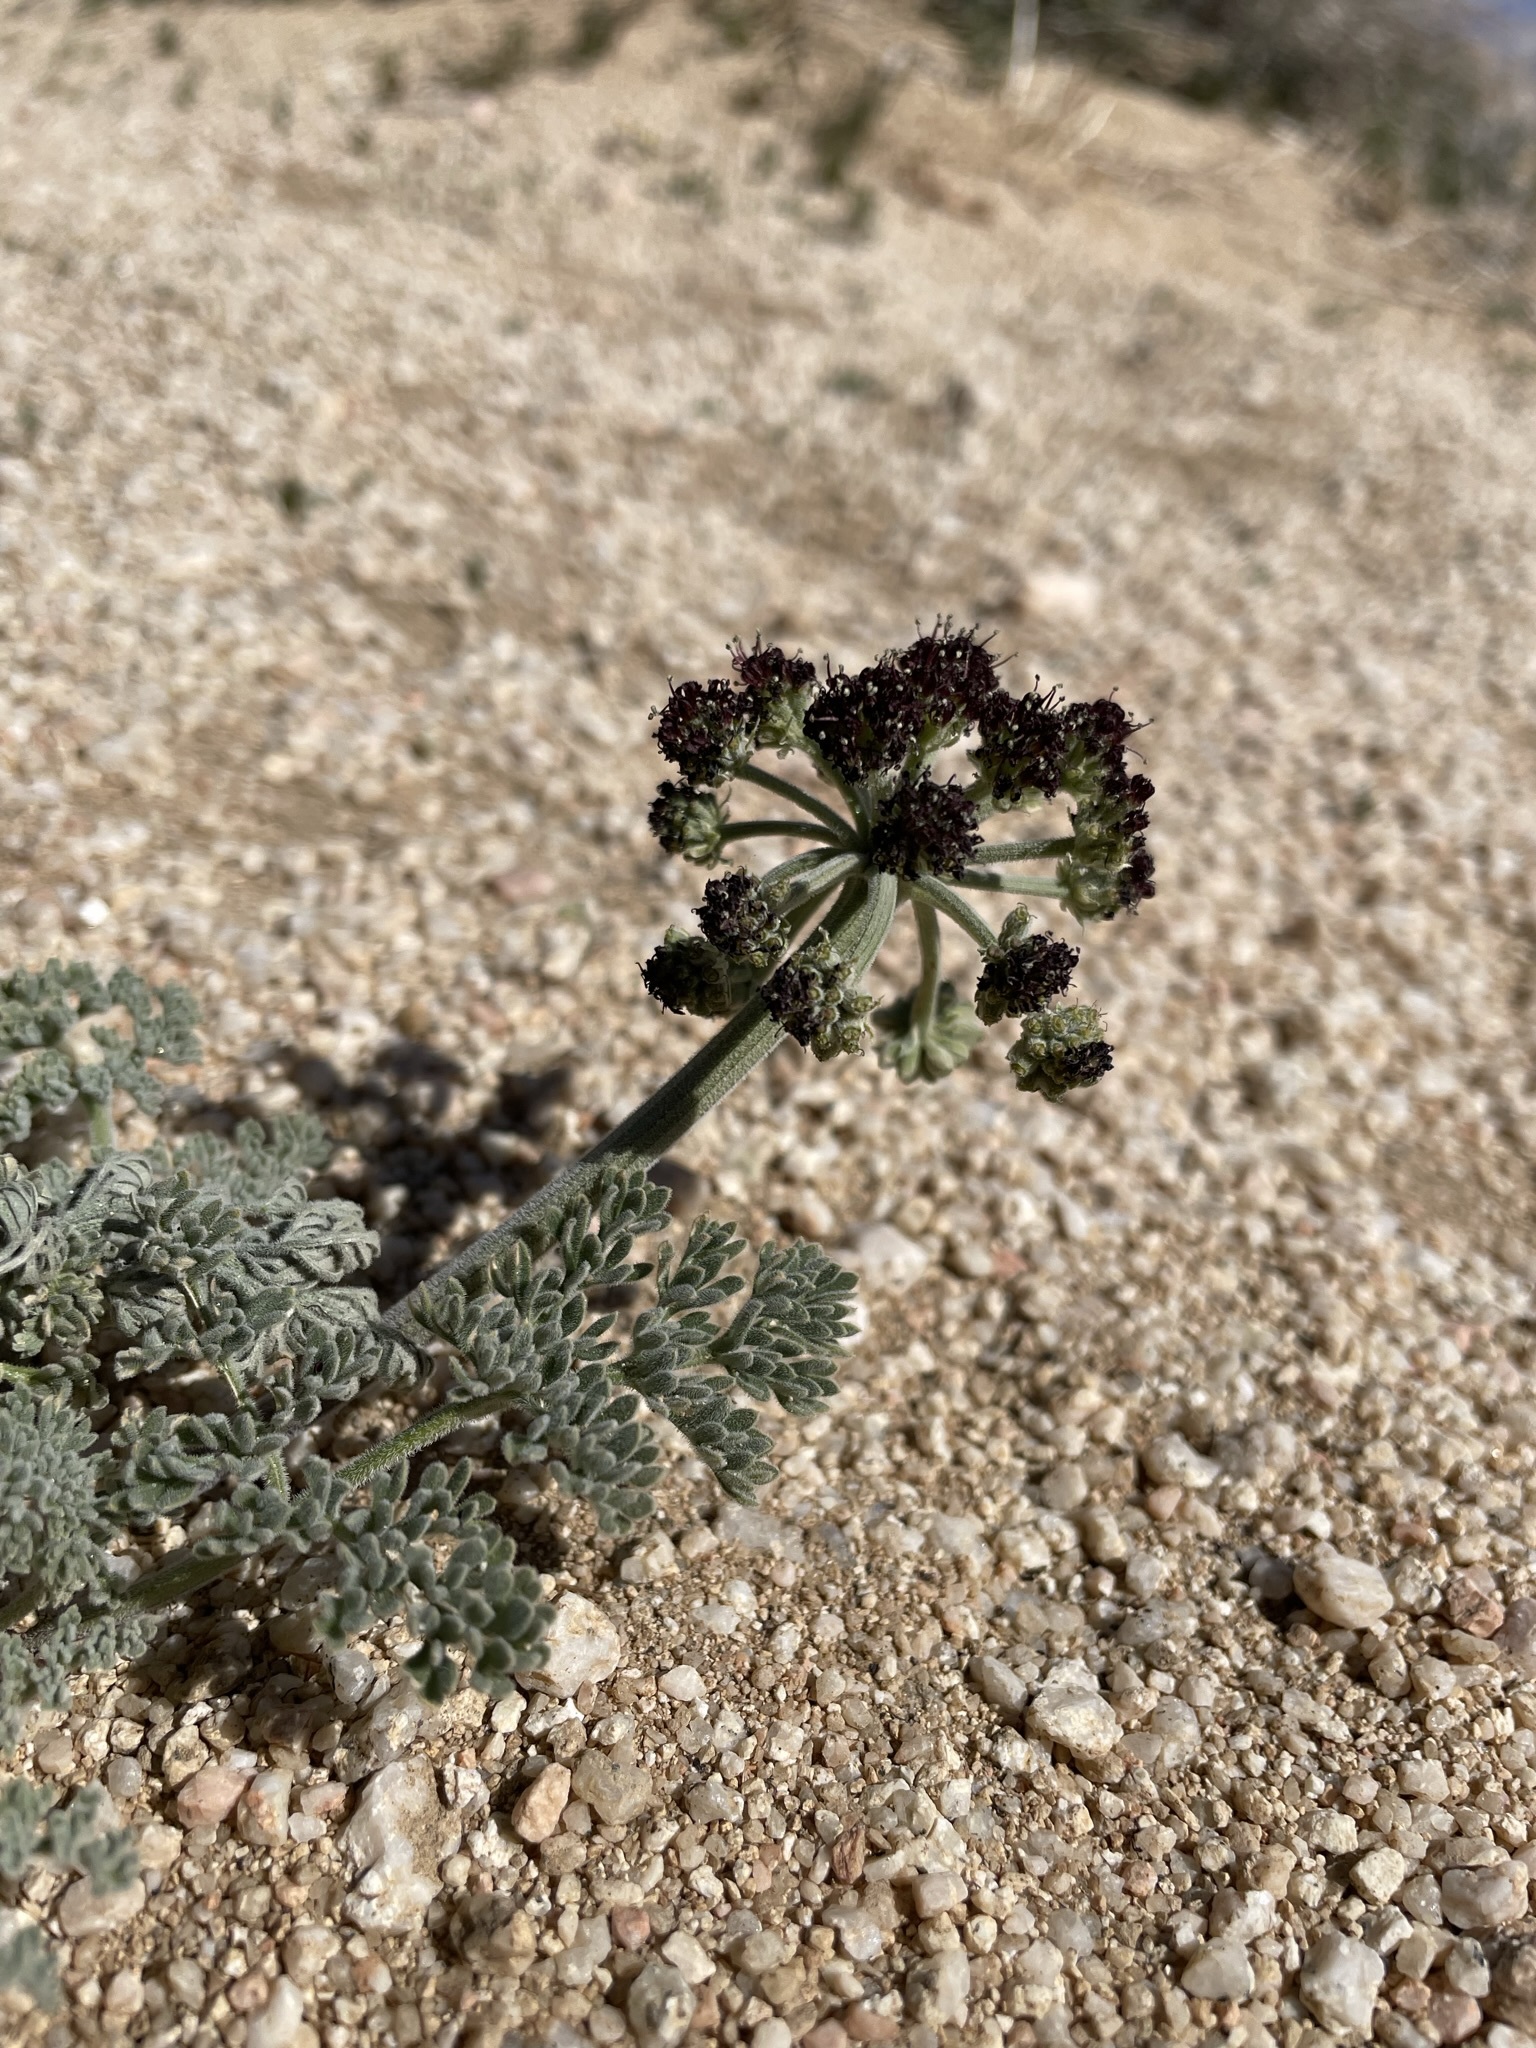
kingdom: Plantae
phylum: Tracheophyta
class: Magnoliopsida
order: Apiales
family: Apiaceae
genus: Lomatium
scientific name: Lomatium mohavense
